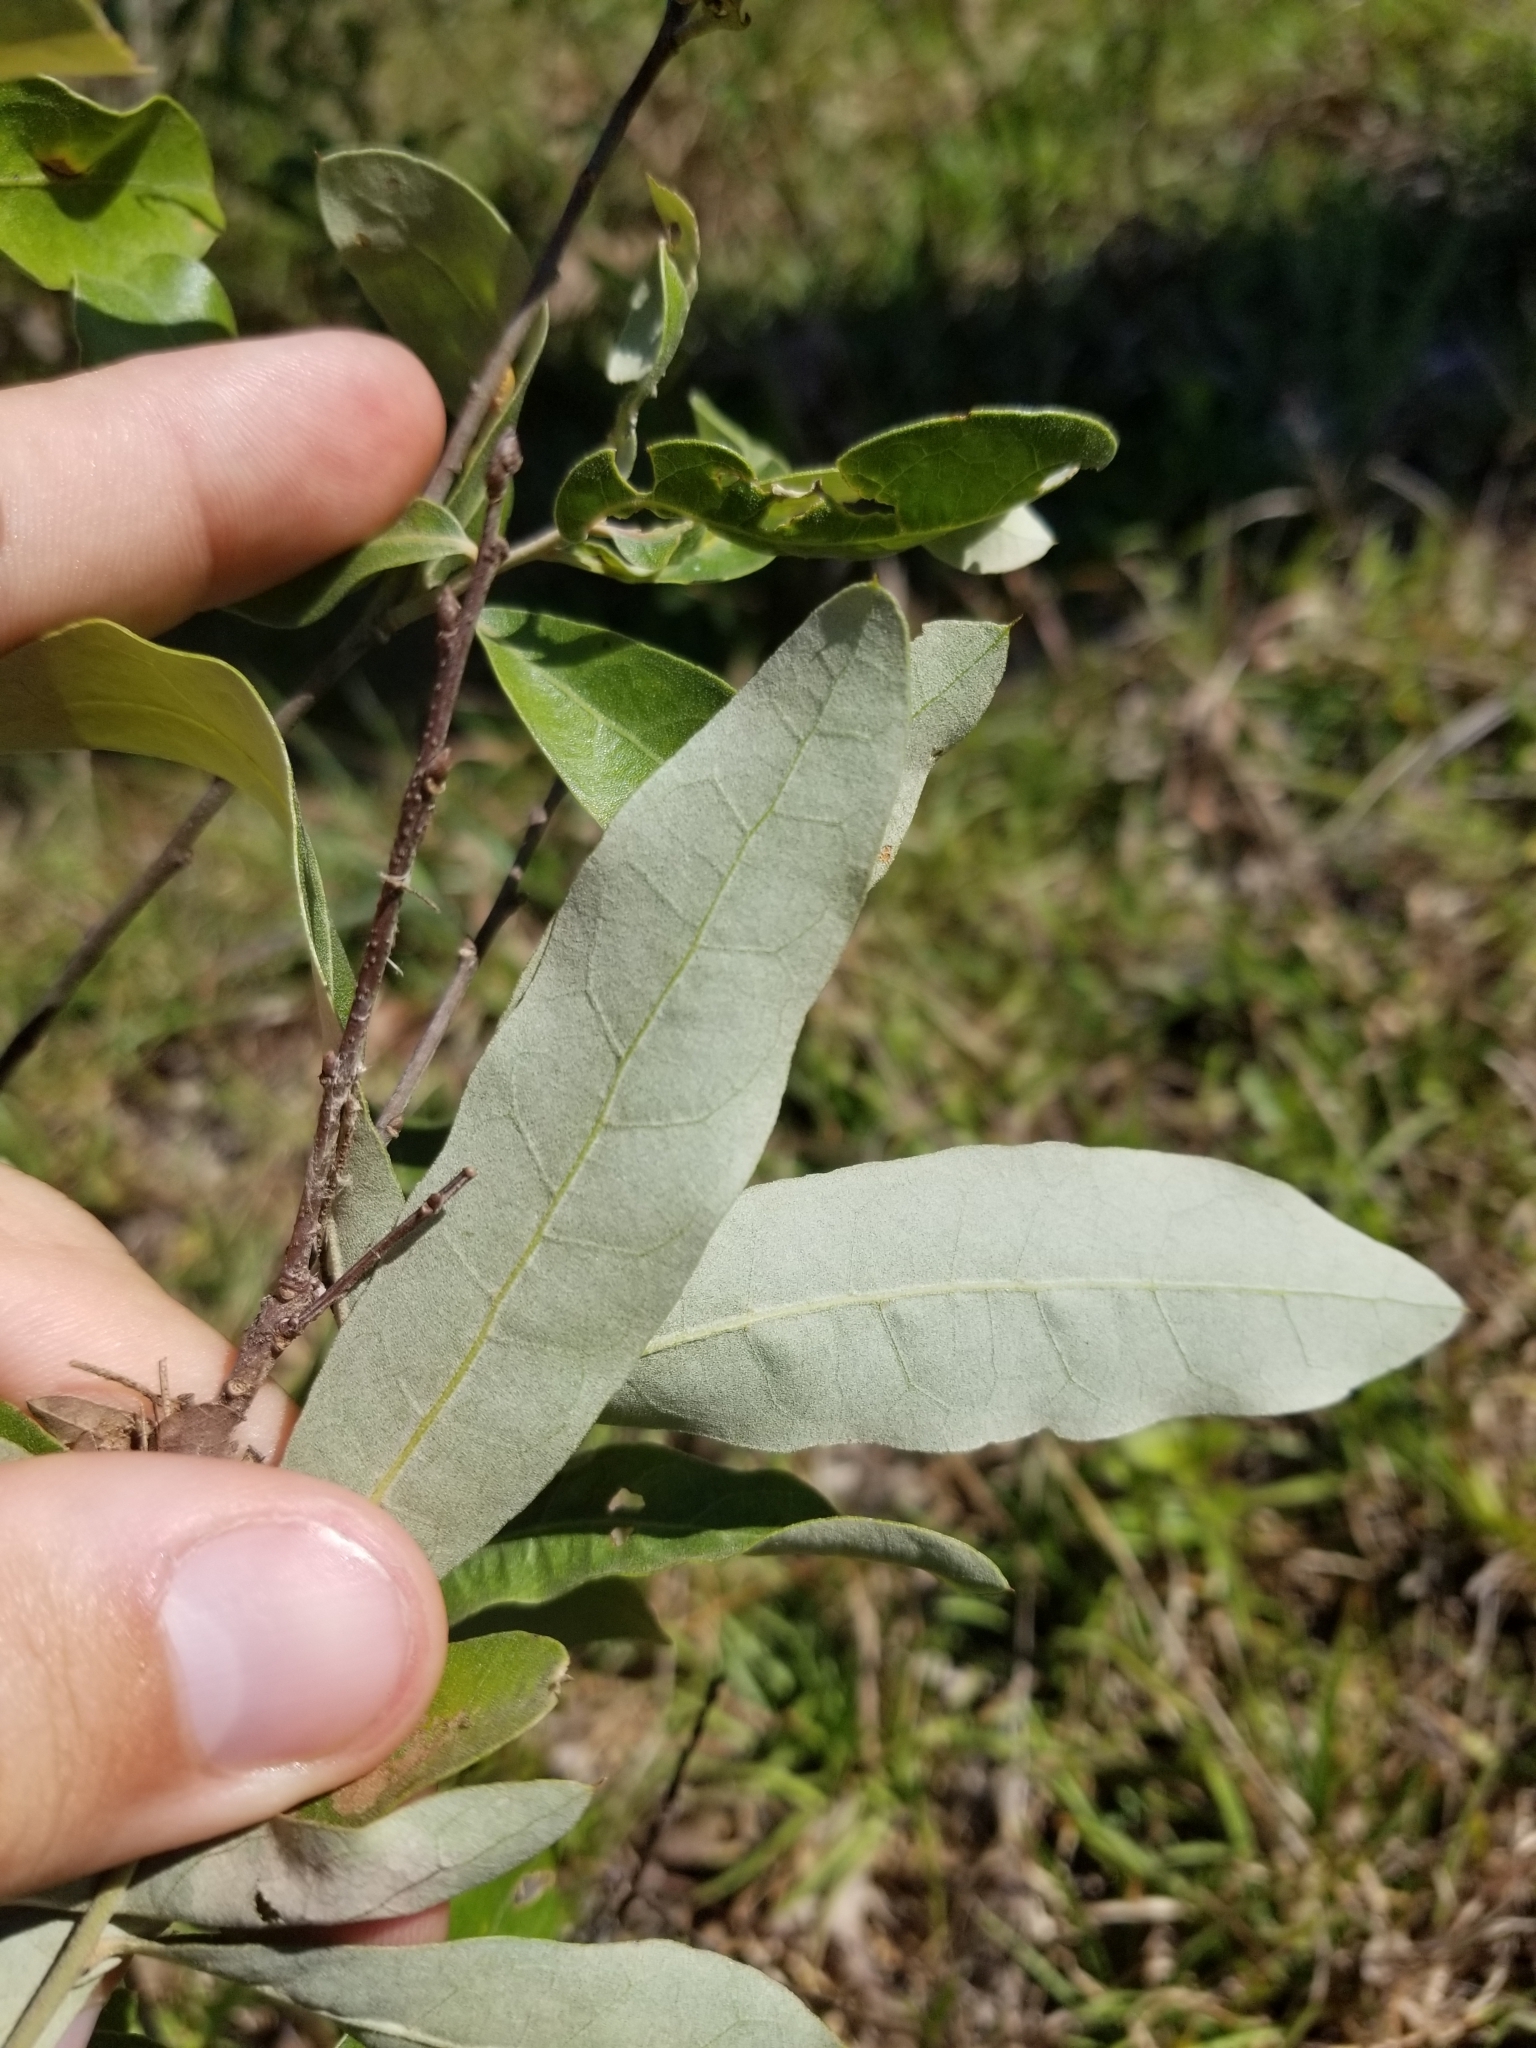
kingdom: Plantae
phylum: Tracheophyta
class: Magnoliopsida
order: Fagales
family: Fagaceae
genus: Quercus
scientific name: Quercus incana
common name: Bluejack oak
